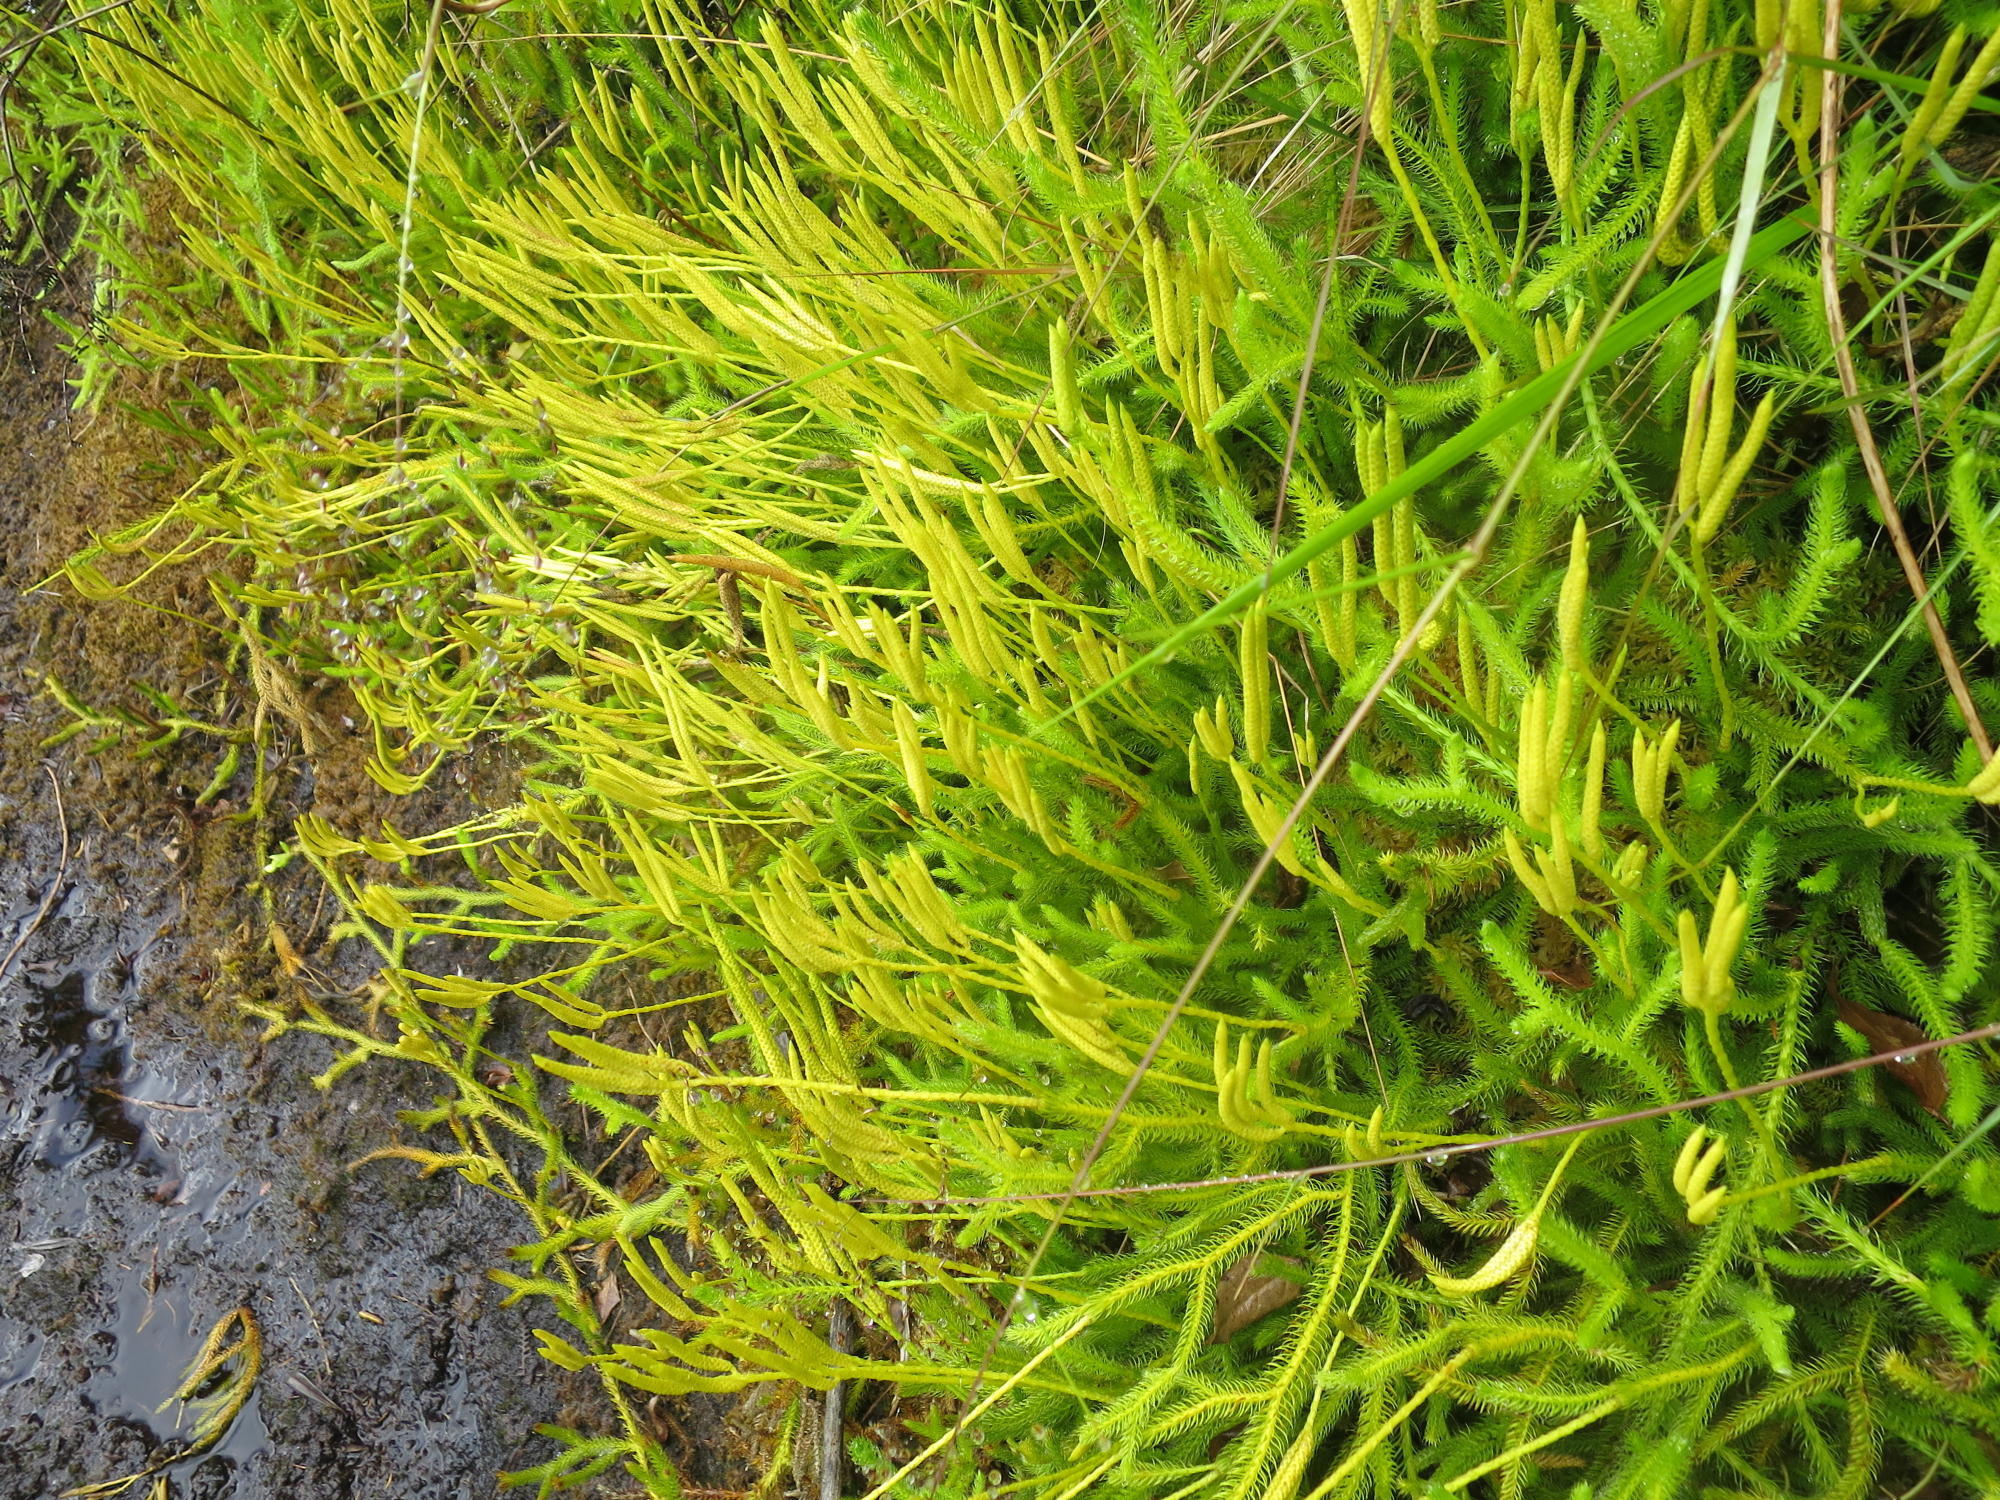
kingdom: Plantae
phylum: Tracheophyta
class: Lycopodiopsida
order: Lycopodiales
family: Lycopodiaceae
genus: Lycopodium
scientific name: Lycopodium clavatum
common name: Stag's-horn clubmoss
